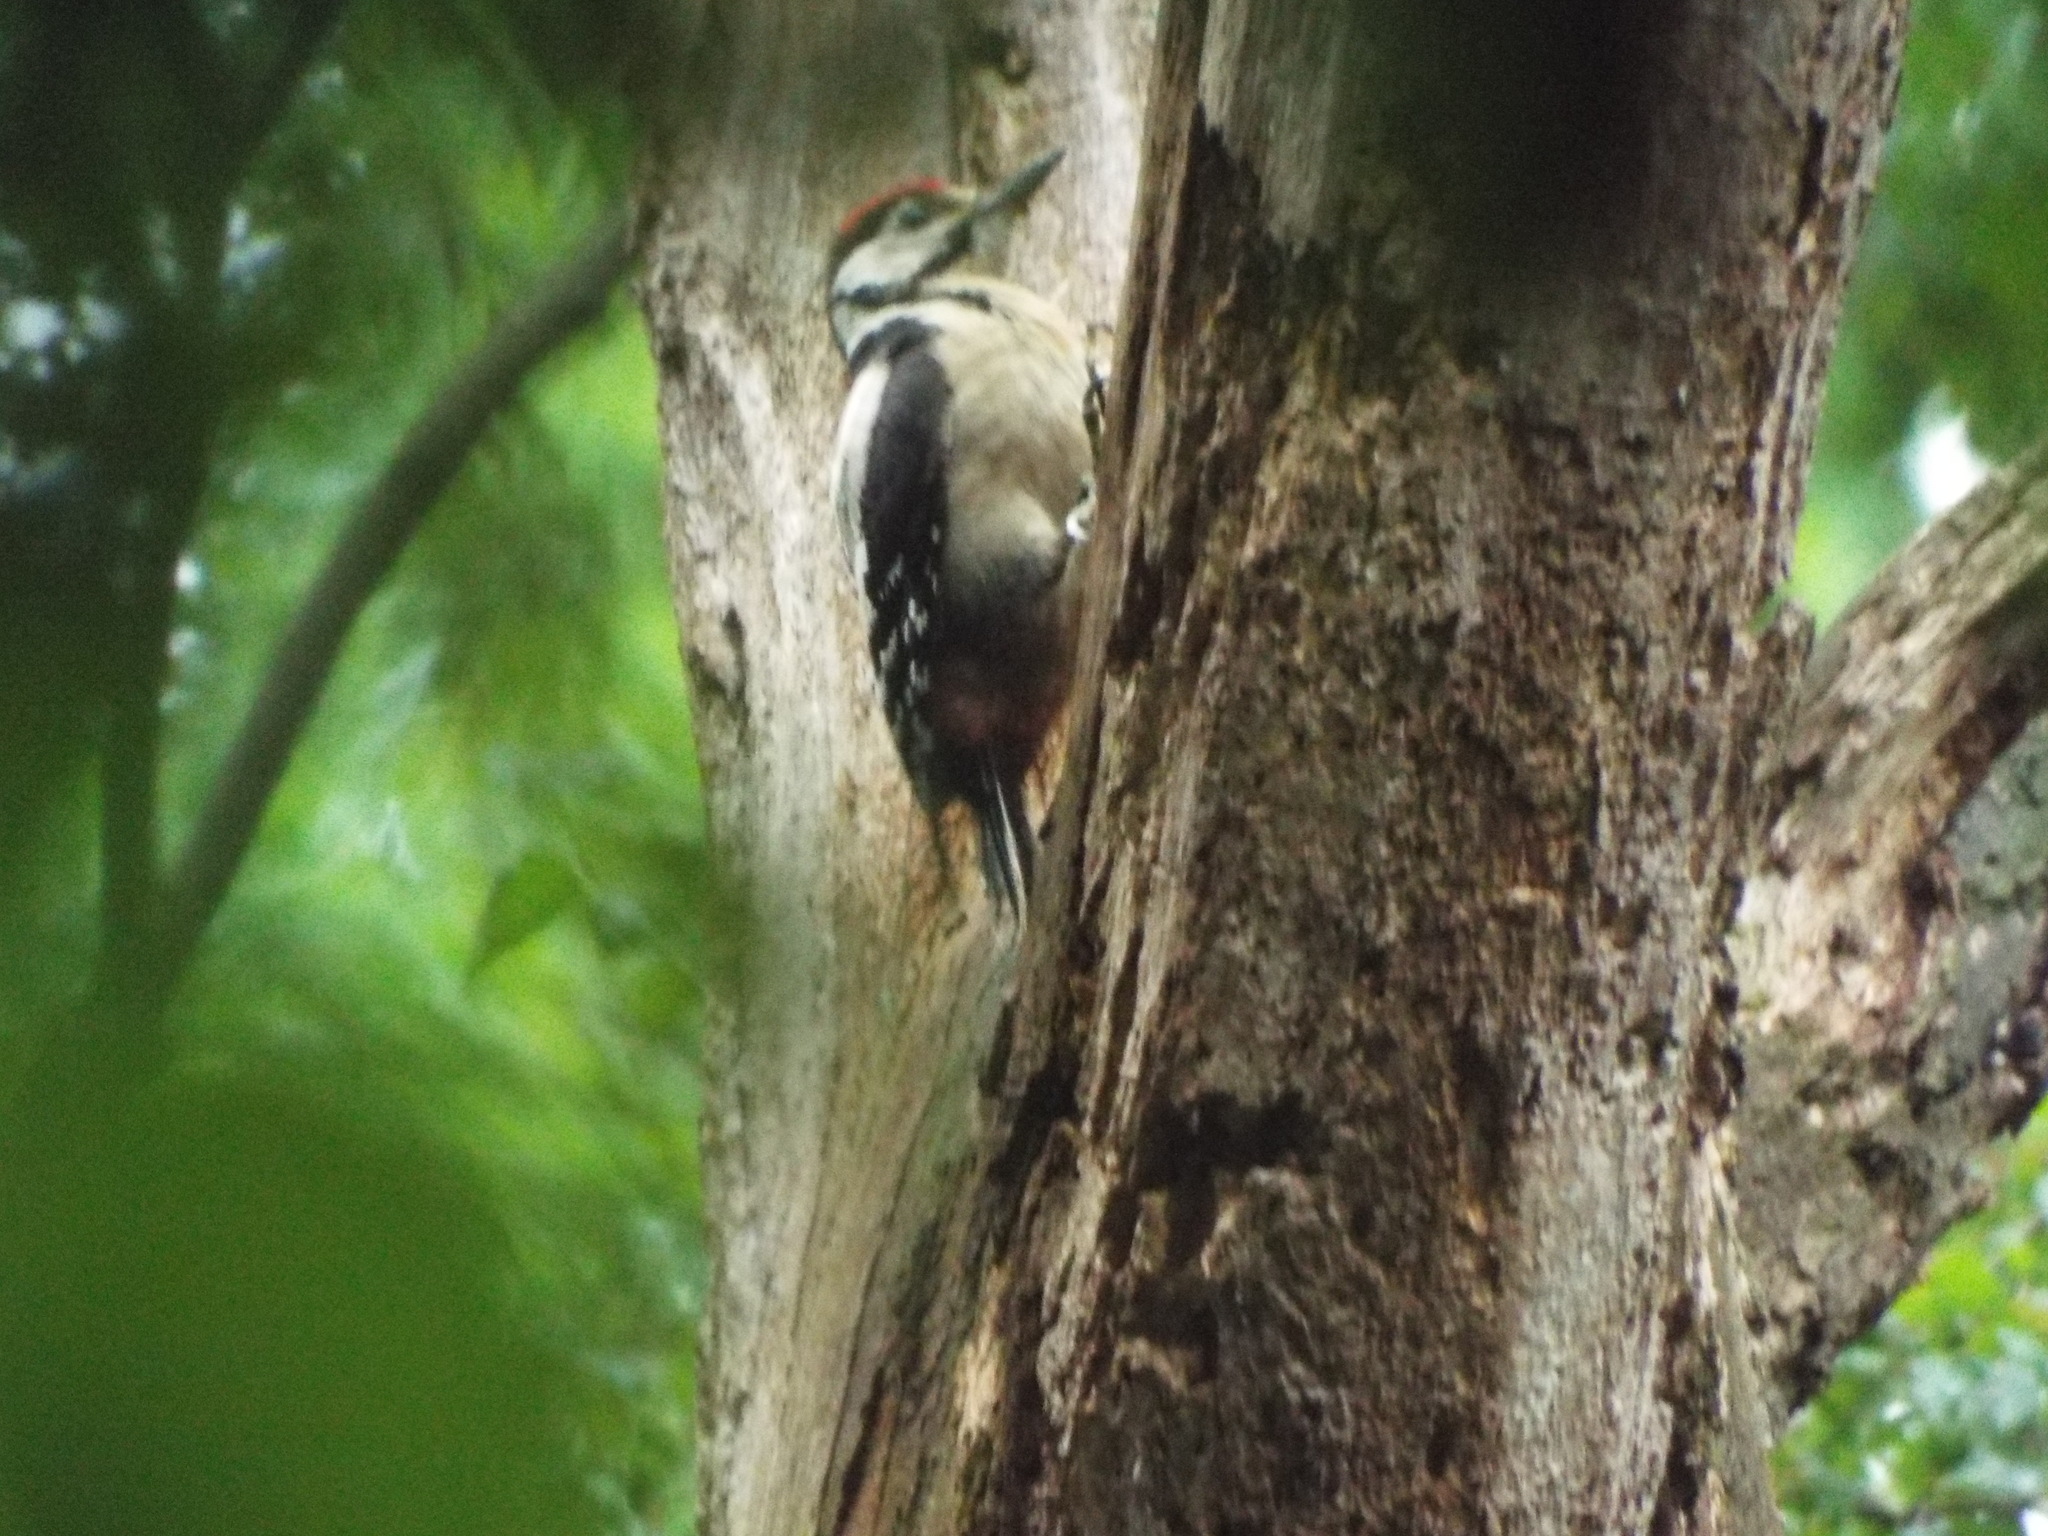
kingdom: Animalia
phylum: Chordata
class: Aves
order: Piciformes
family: Picidae
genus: Dendrocopos
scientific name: Dendrocopos major
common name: Great spotted woodpecker
